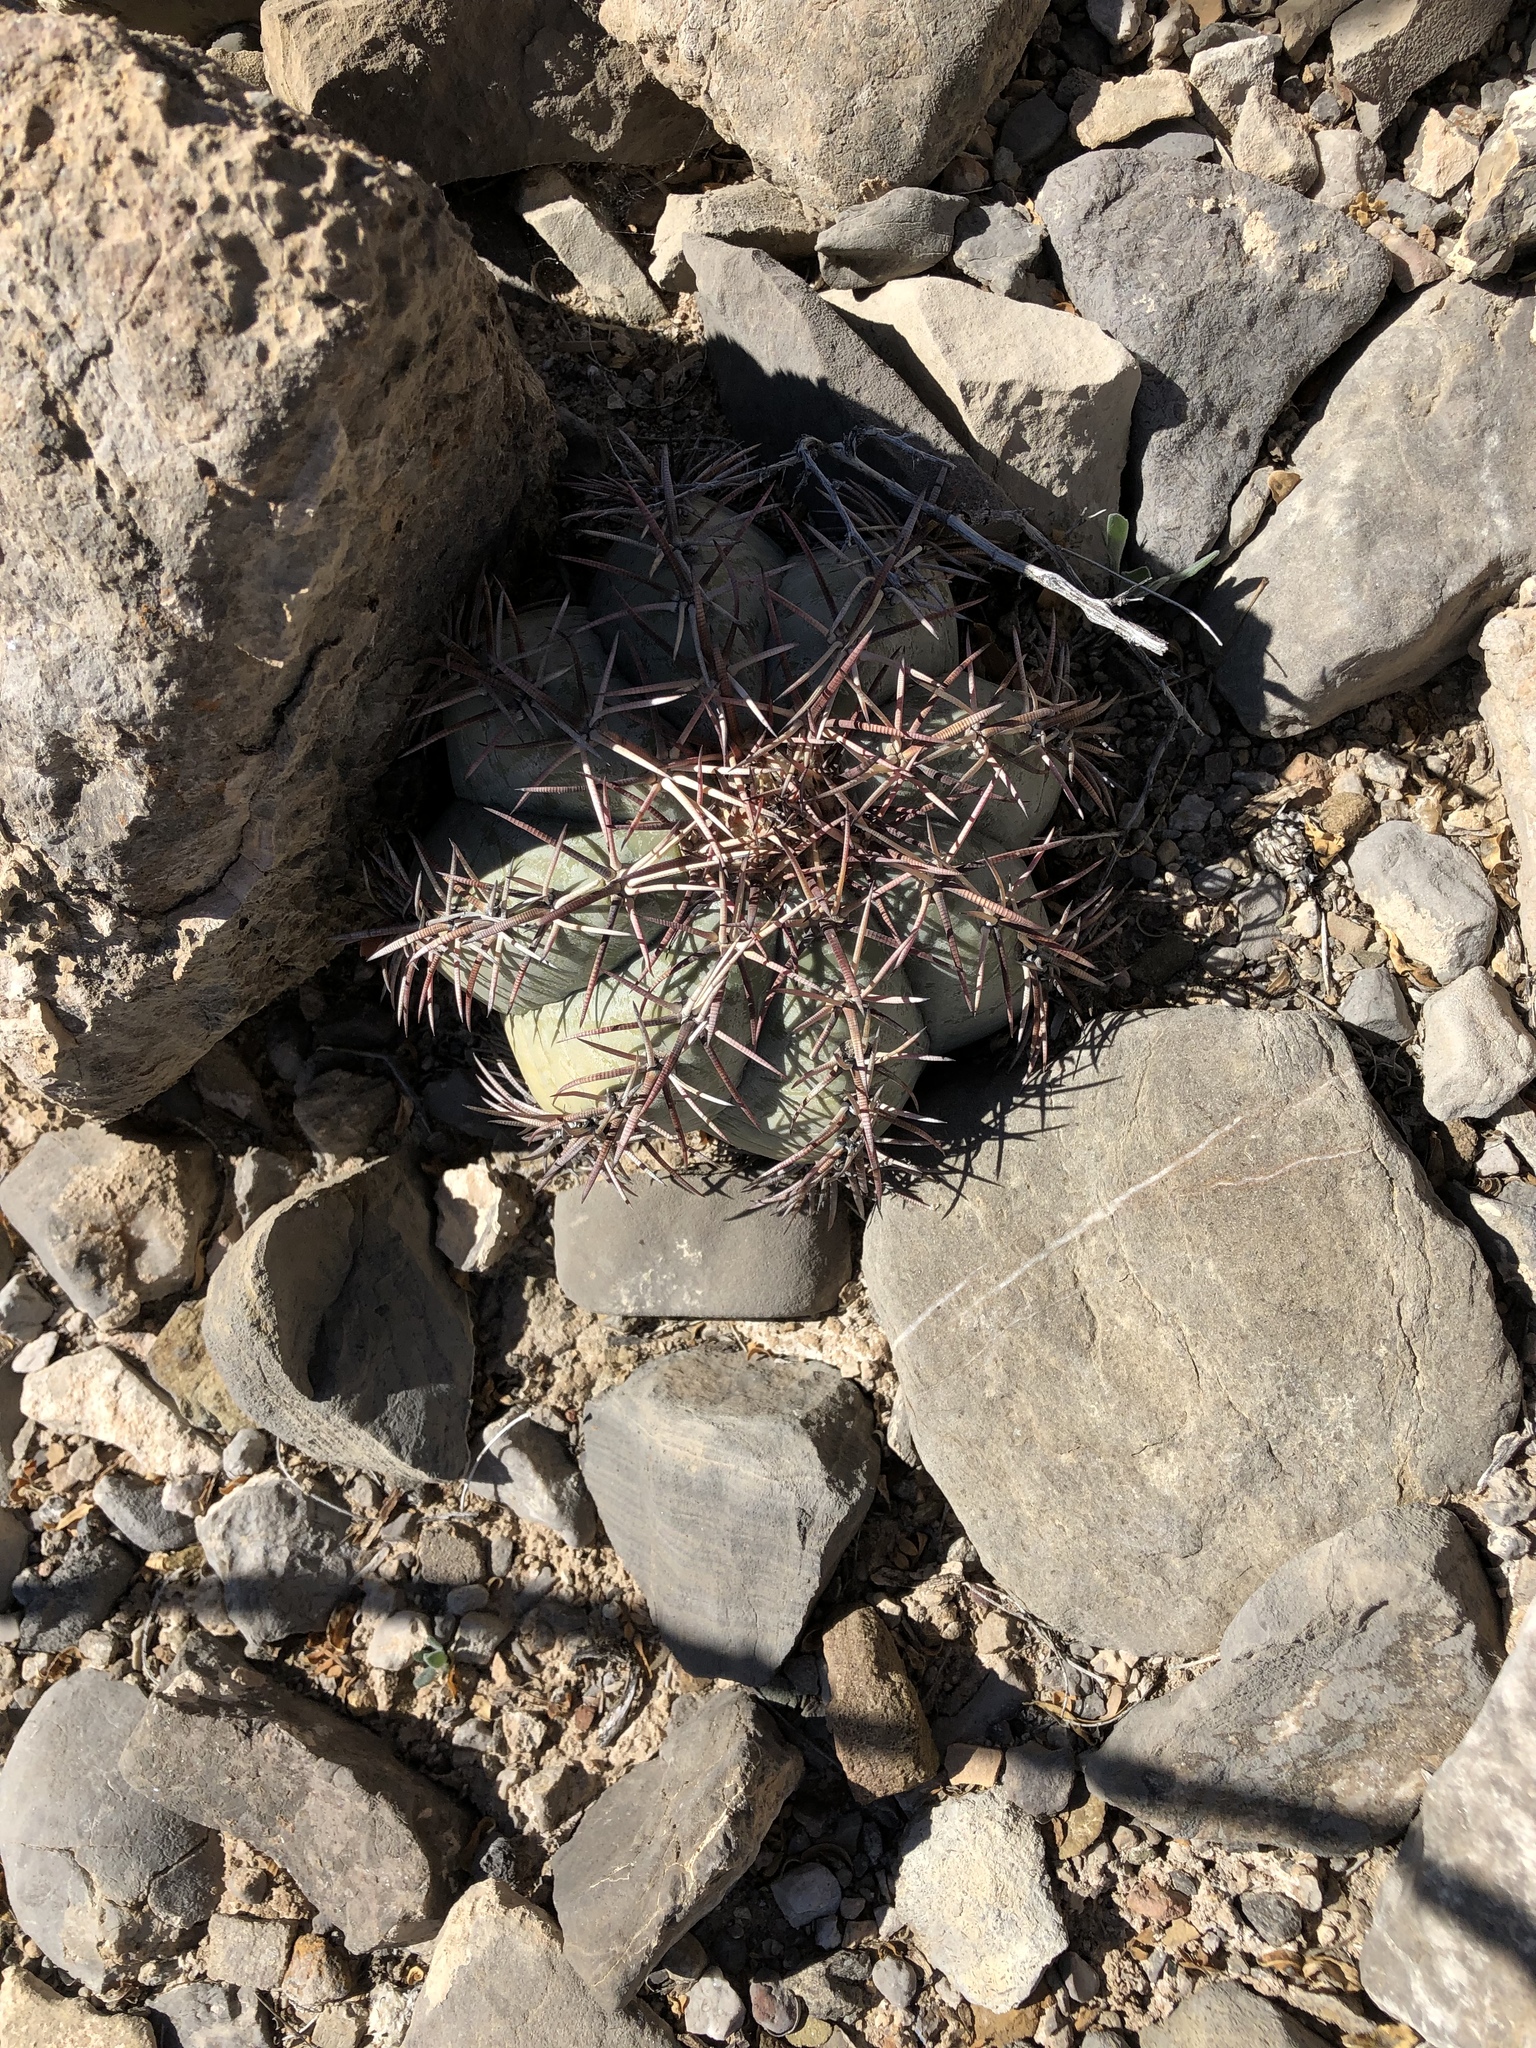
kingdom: Plantae
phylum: Tracheophyta
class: Magnoliopsida
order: Caryophyllales
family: Cactaceae
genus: Echinocactus
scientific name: Echinocactus horizonthalonius
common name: Devilshead
